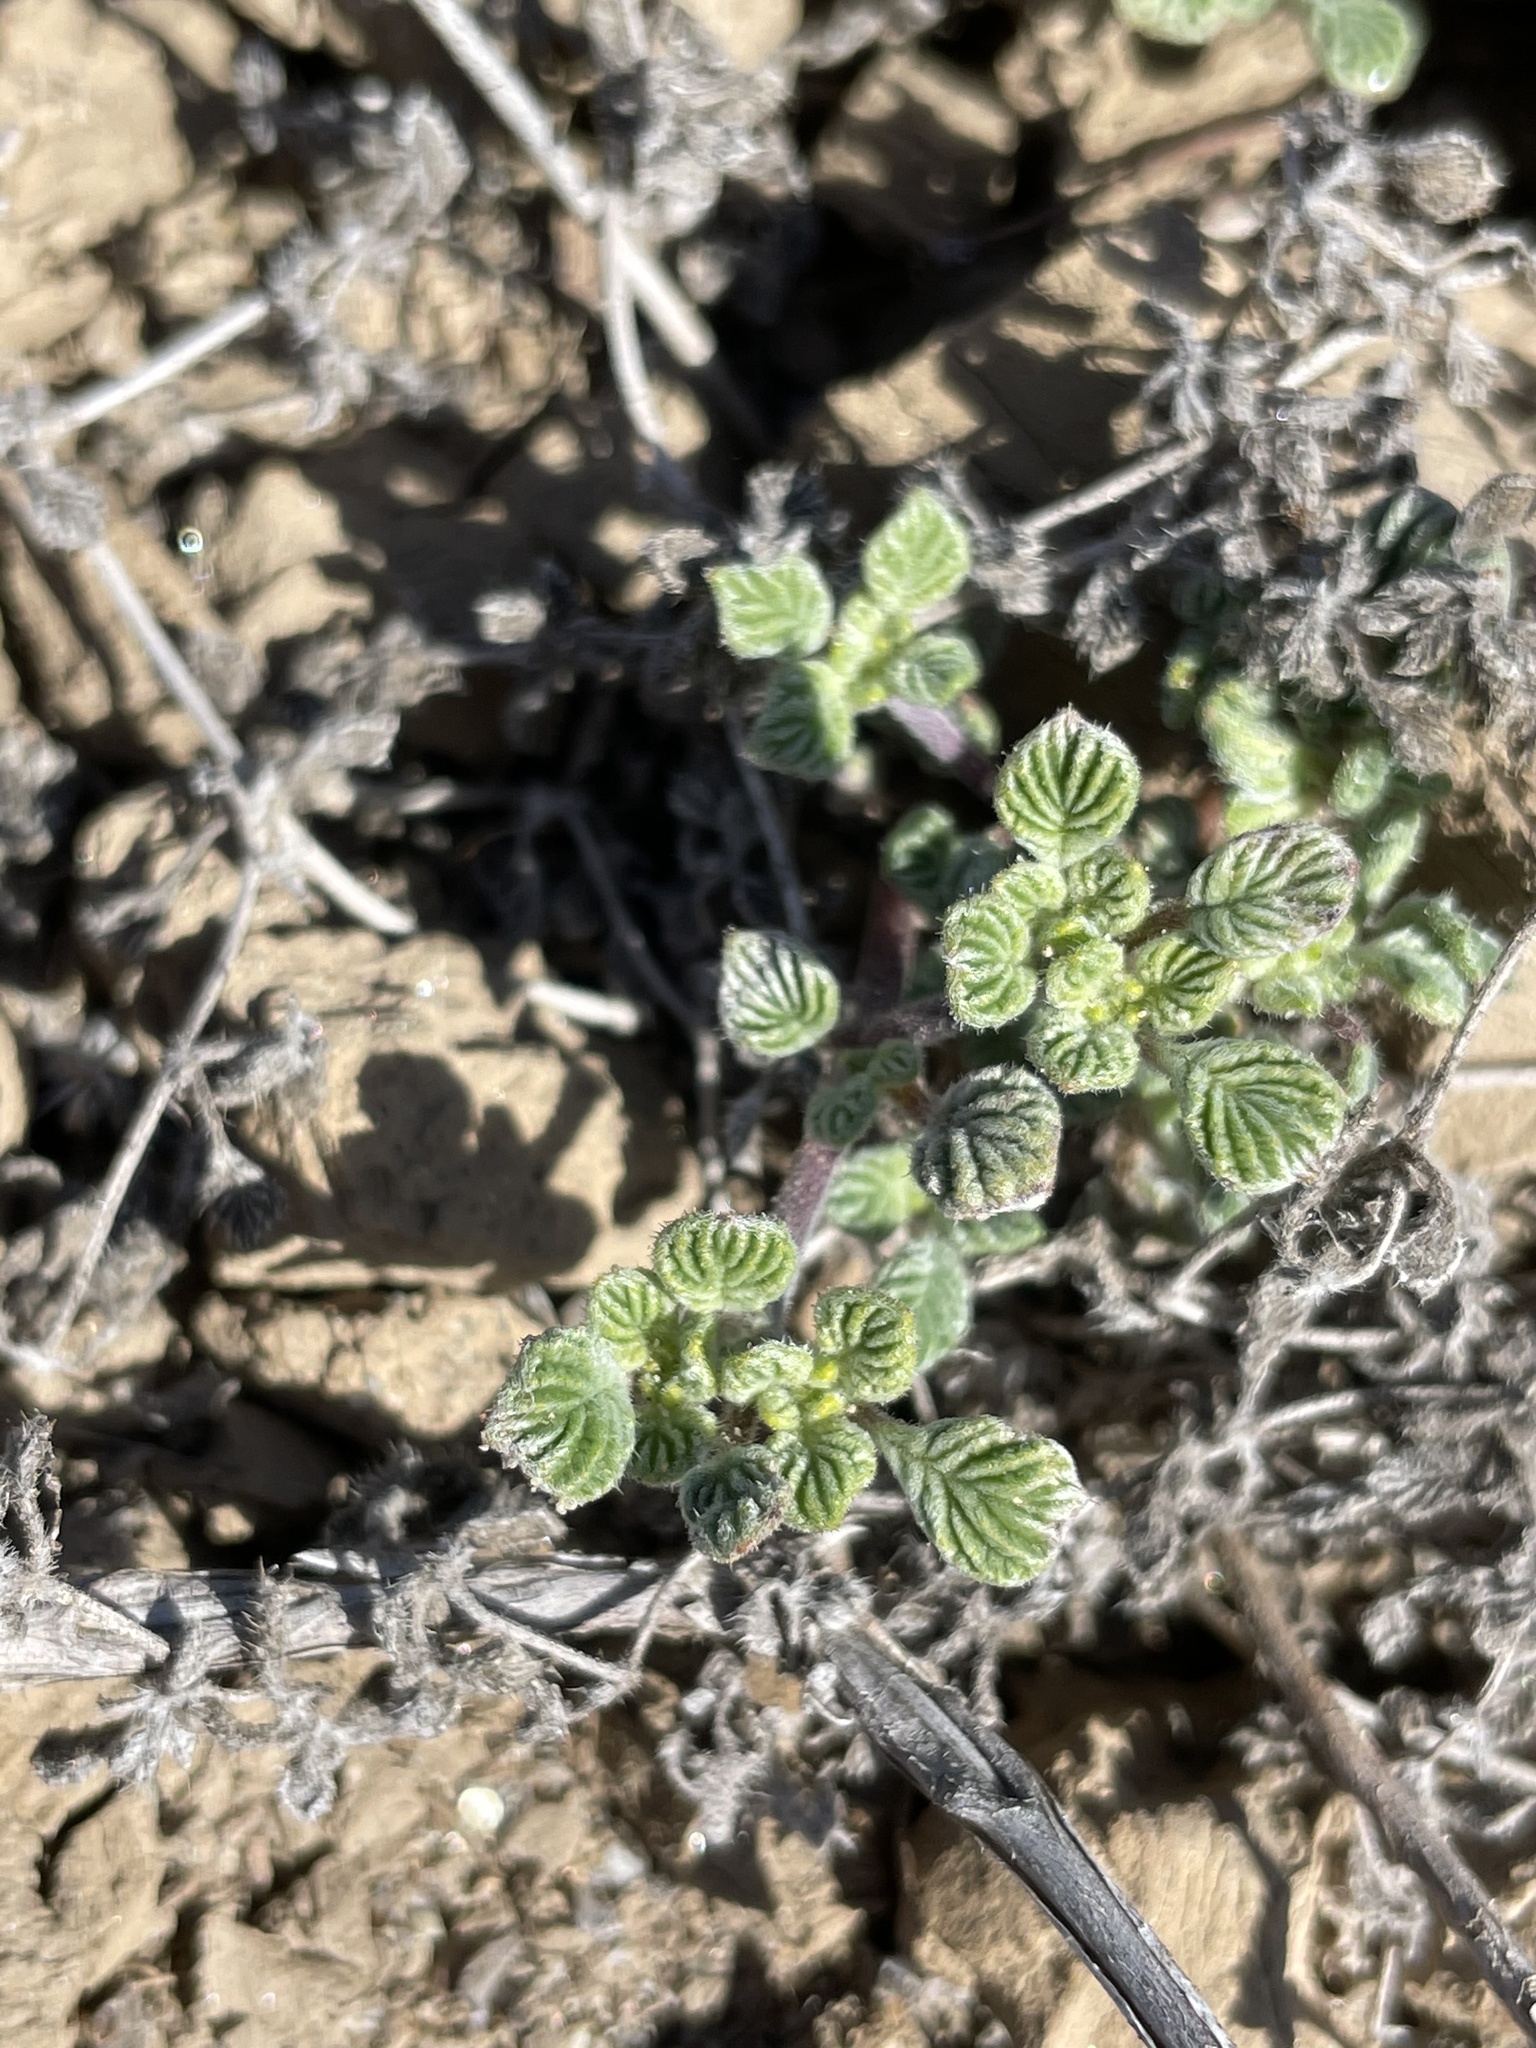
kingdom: Plantae
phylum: Tracheophyta
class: Magnoliopsida
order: Boraginales
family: Ehretiaceae
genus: Tiquilia
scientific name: Tiquilia plicata
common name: Fan-leaf tiquilia
